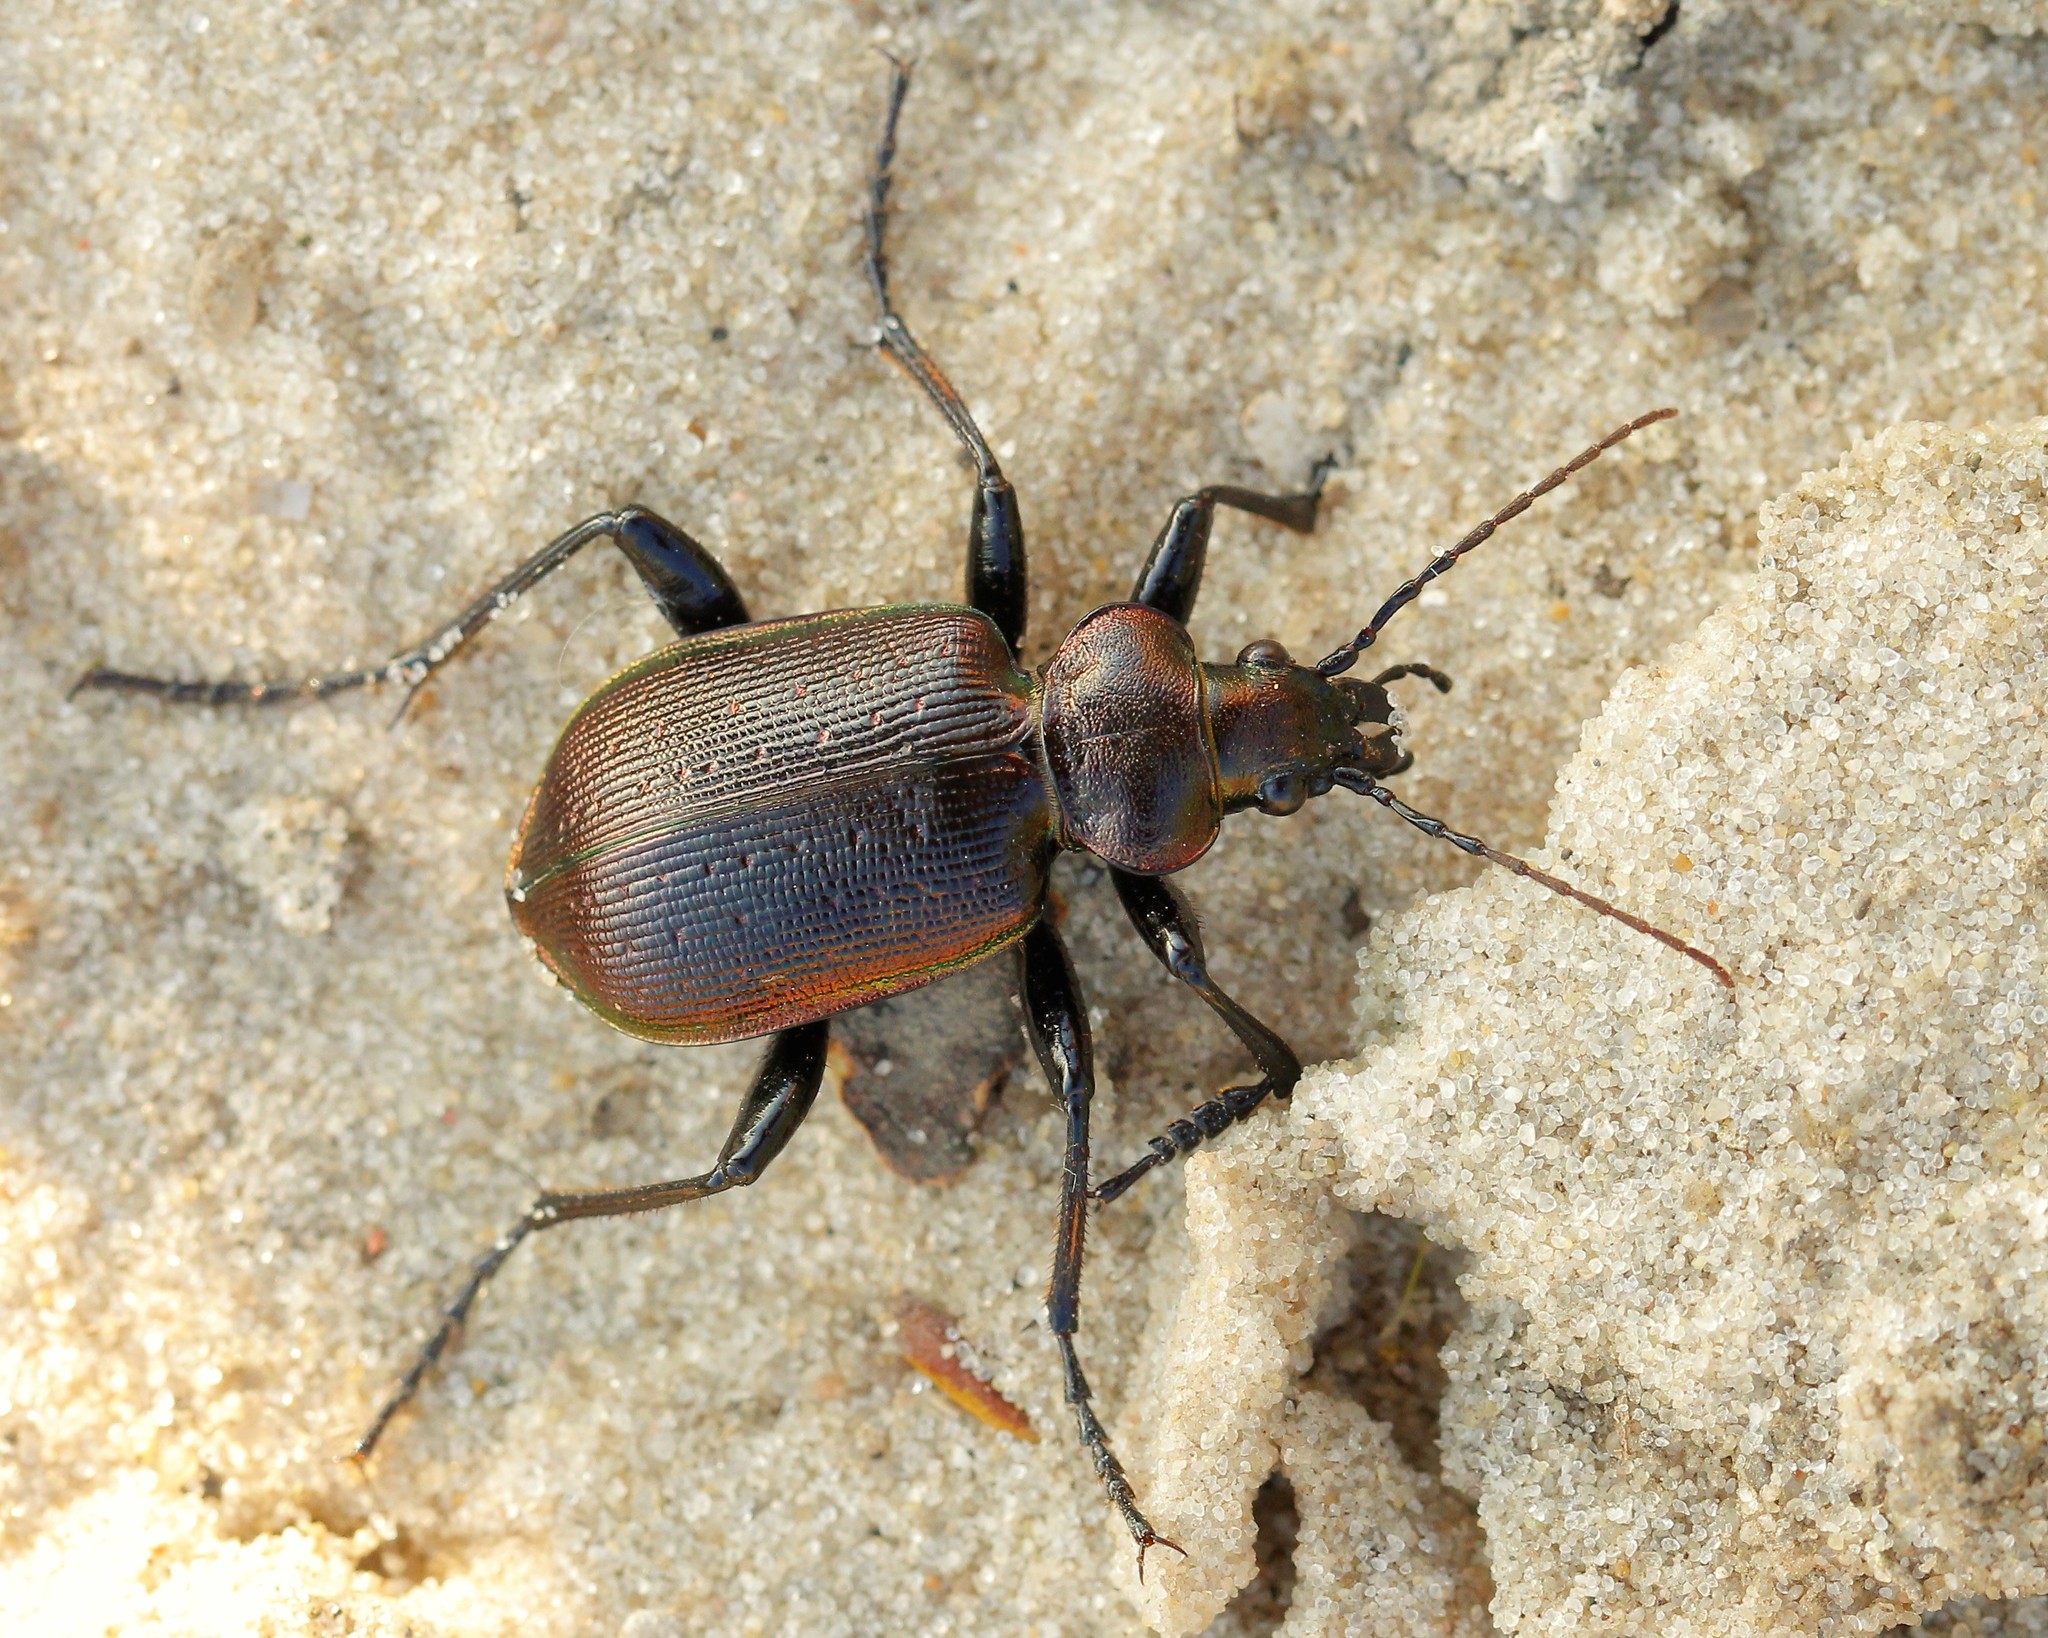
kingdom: Animalia
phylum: Arthropoda
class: Insecta
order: Coleoptera
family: Carabidae
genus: Calosoma
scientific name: Calosoma inquisitor
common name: Caterpillar-hunter
